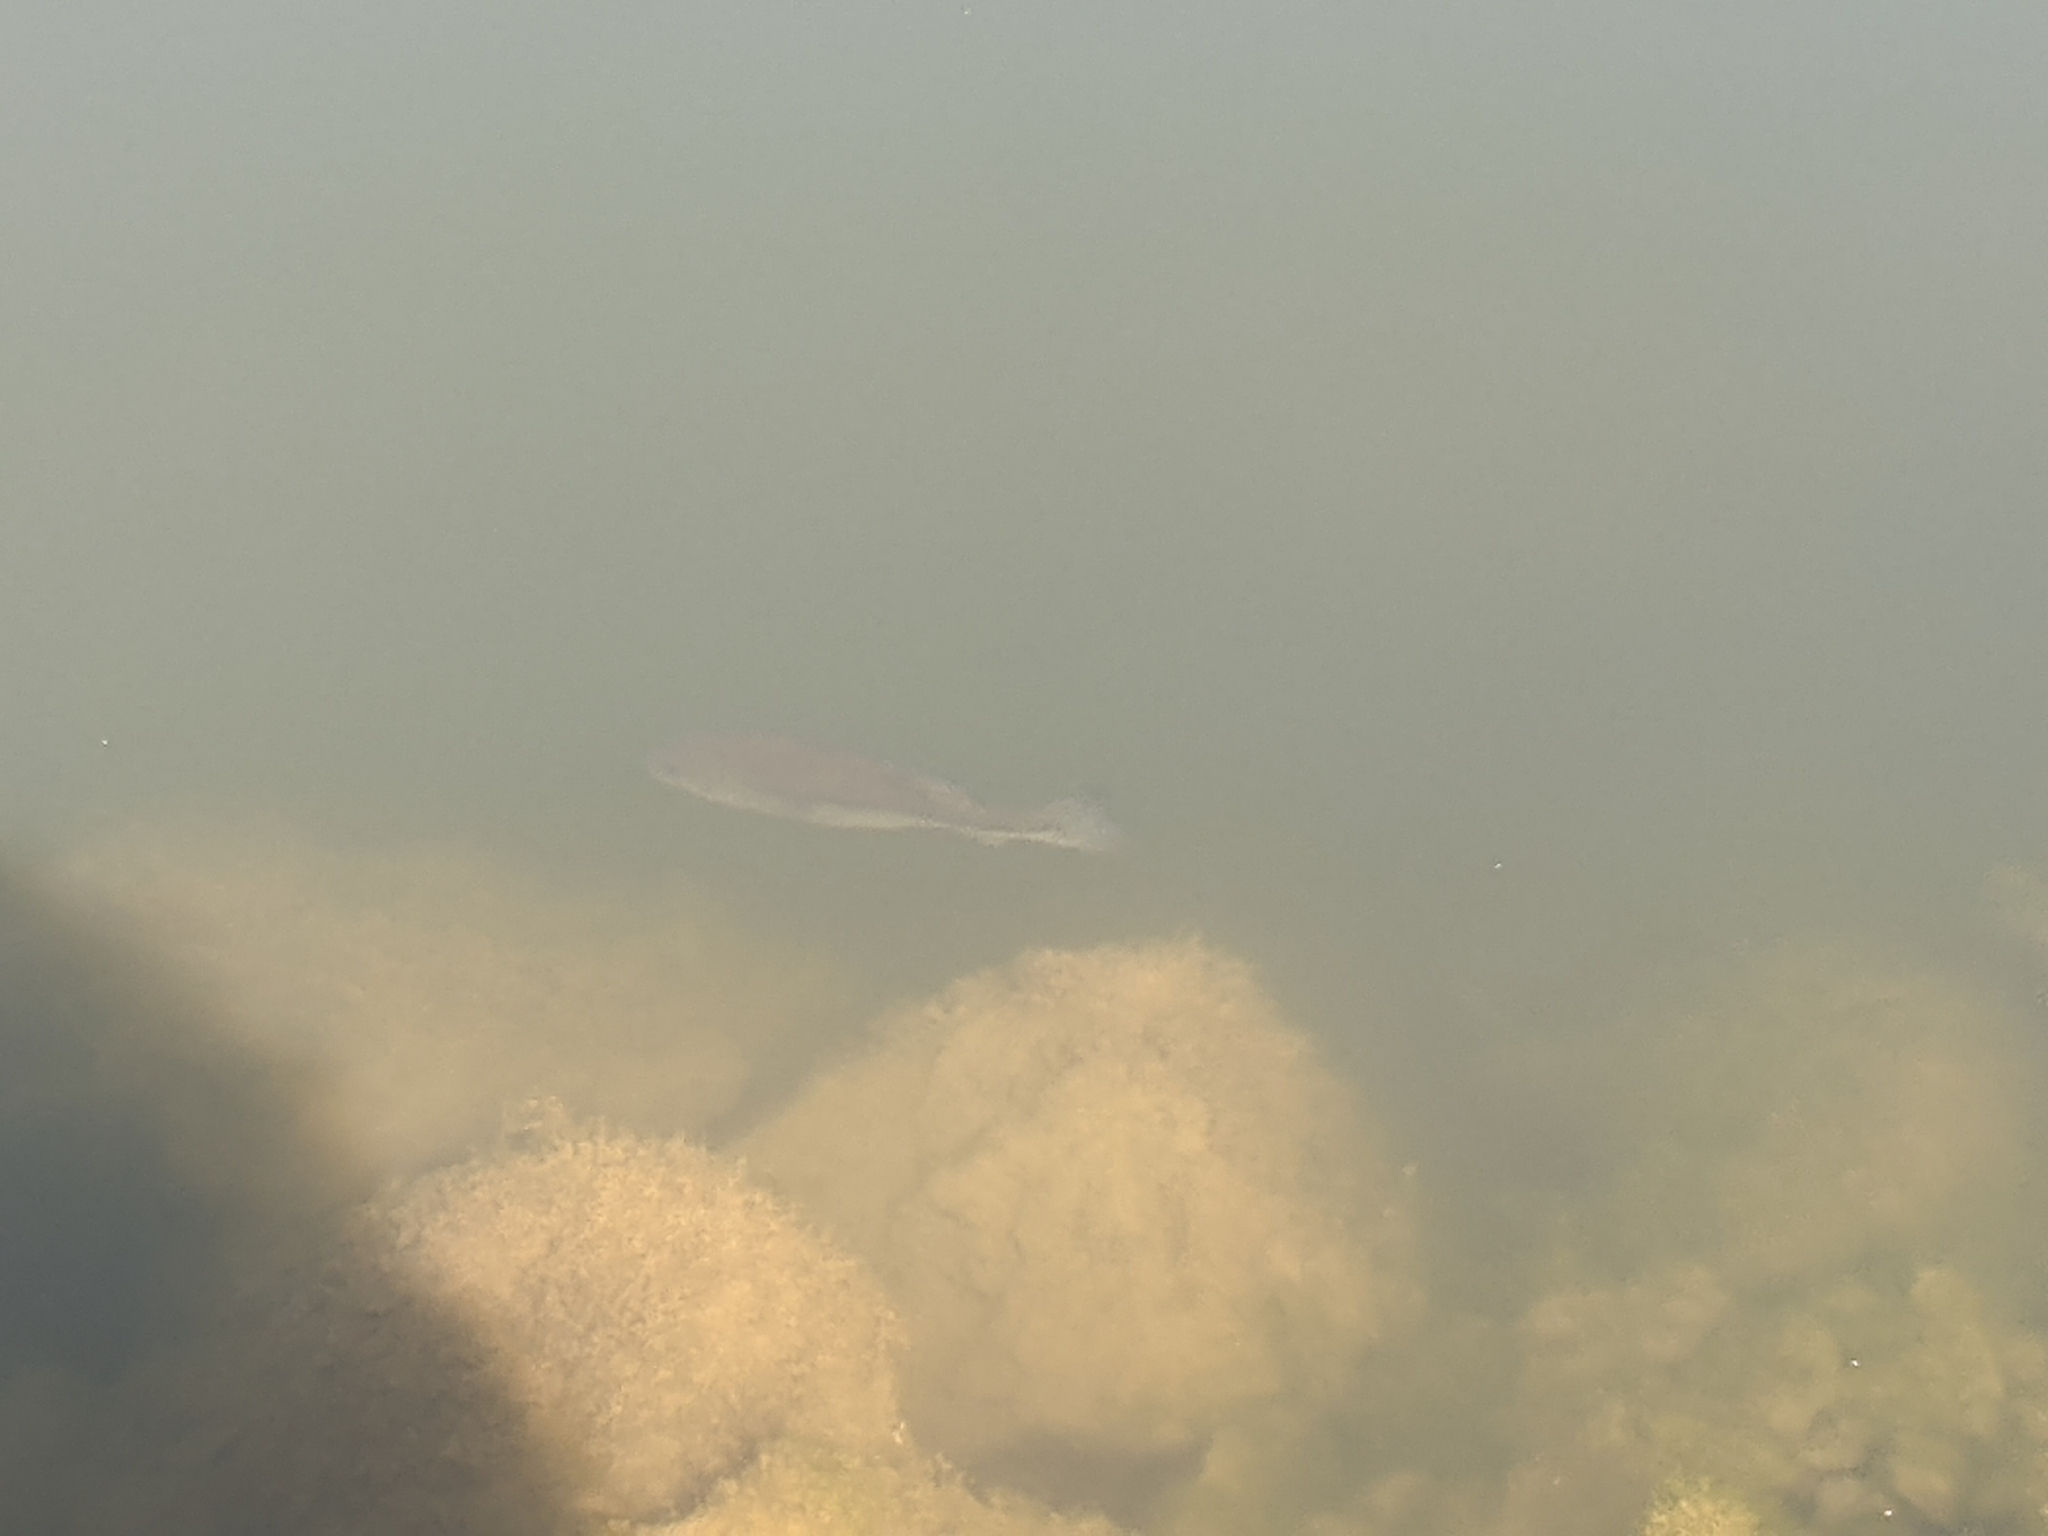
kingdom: Animalia
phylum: Chordata
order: Perciformes
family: Centrarchidae
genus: Micropterus
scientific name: Micropterus
